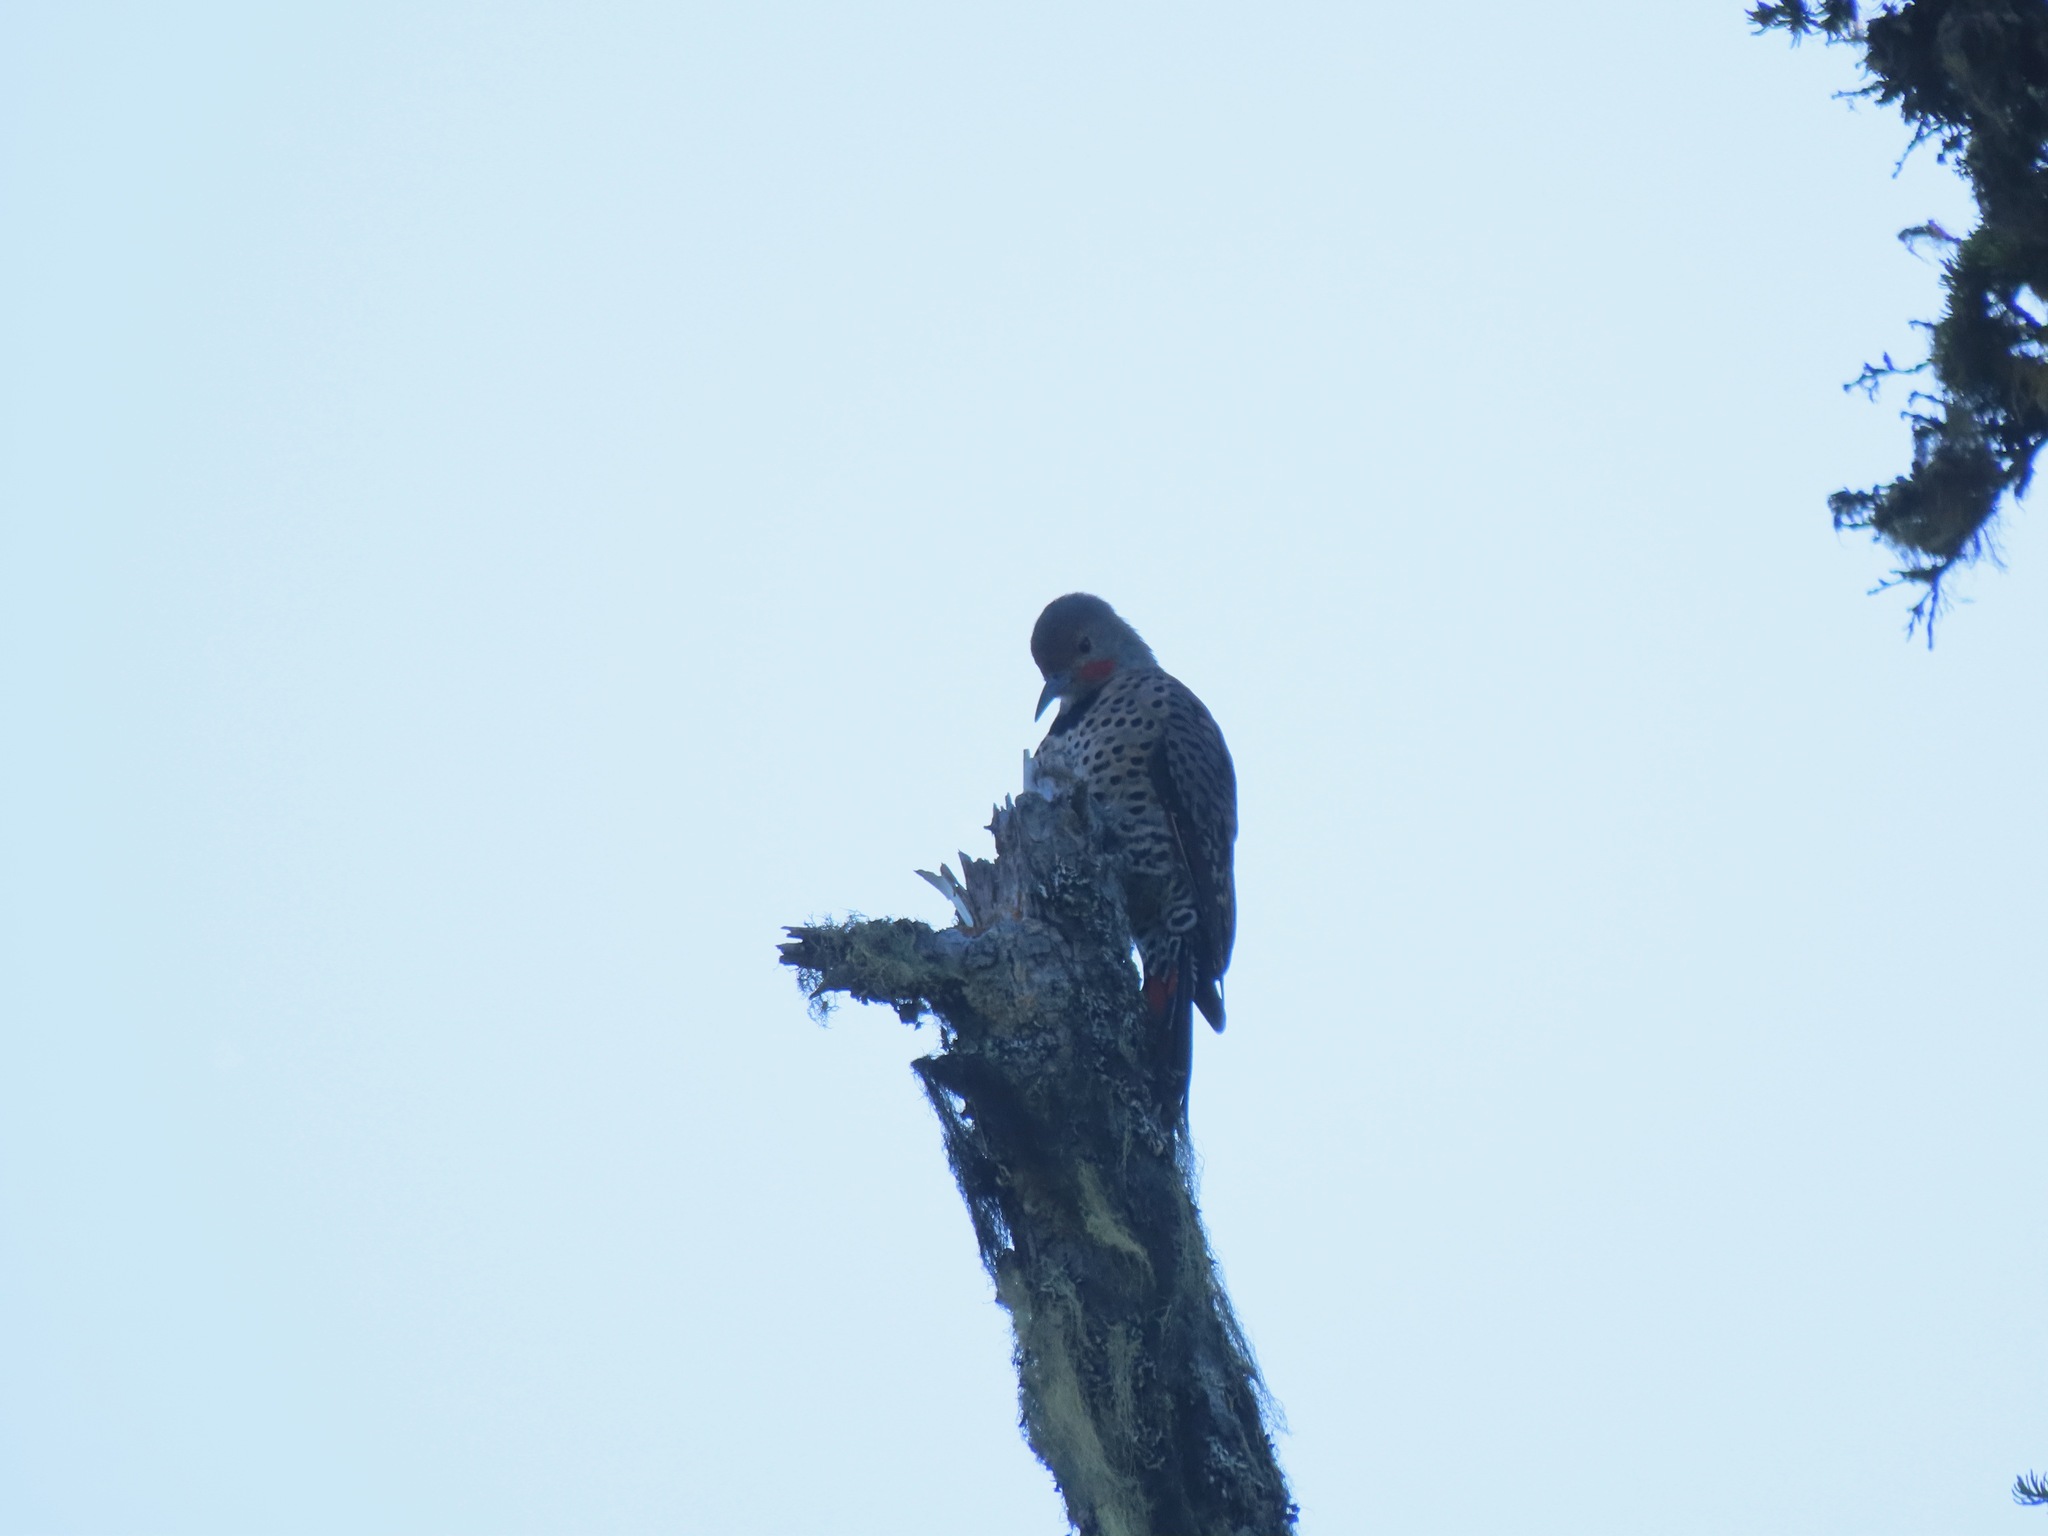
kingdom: Animalia
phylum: Chordata
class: Aves
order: Piciformes
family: Picidae
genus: Colaptes
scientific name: Colaptes auratus
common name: Northern flicker
